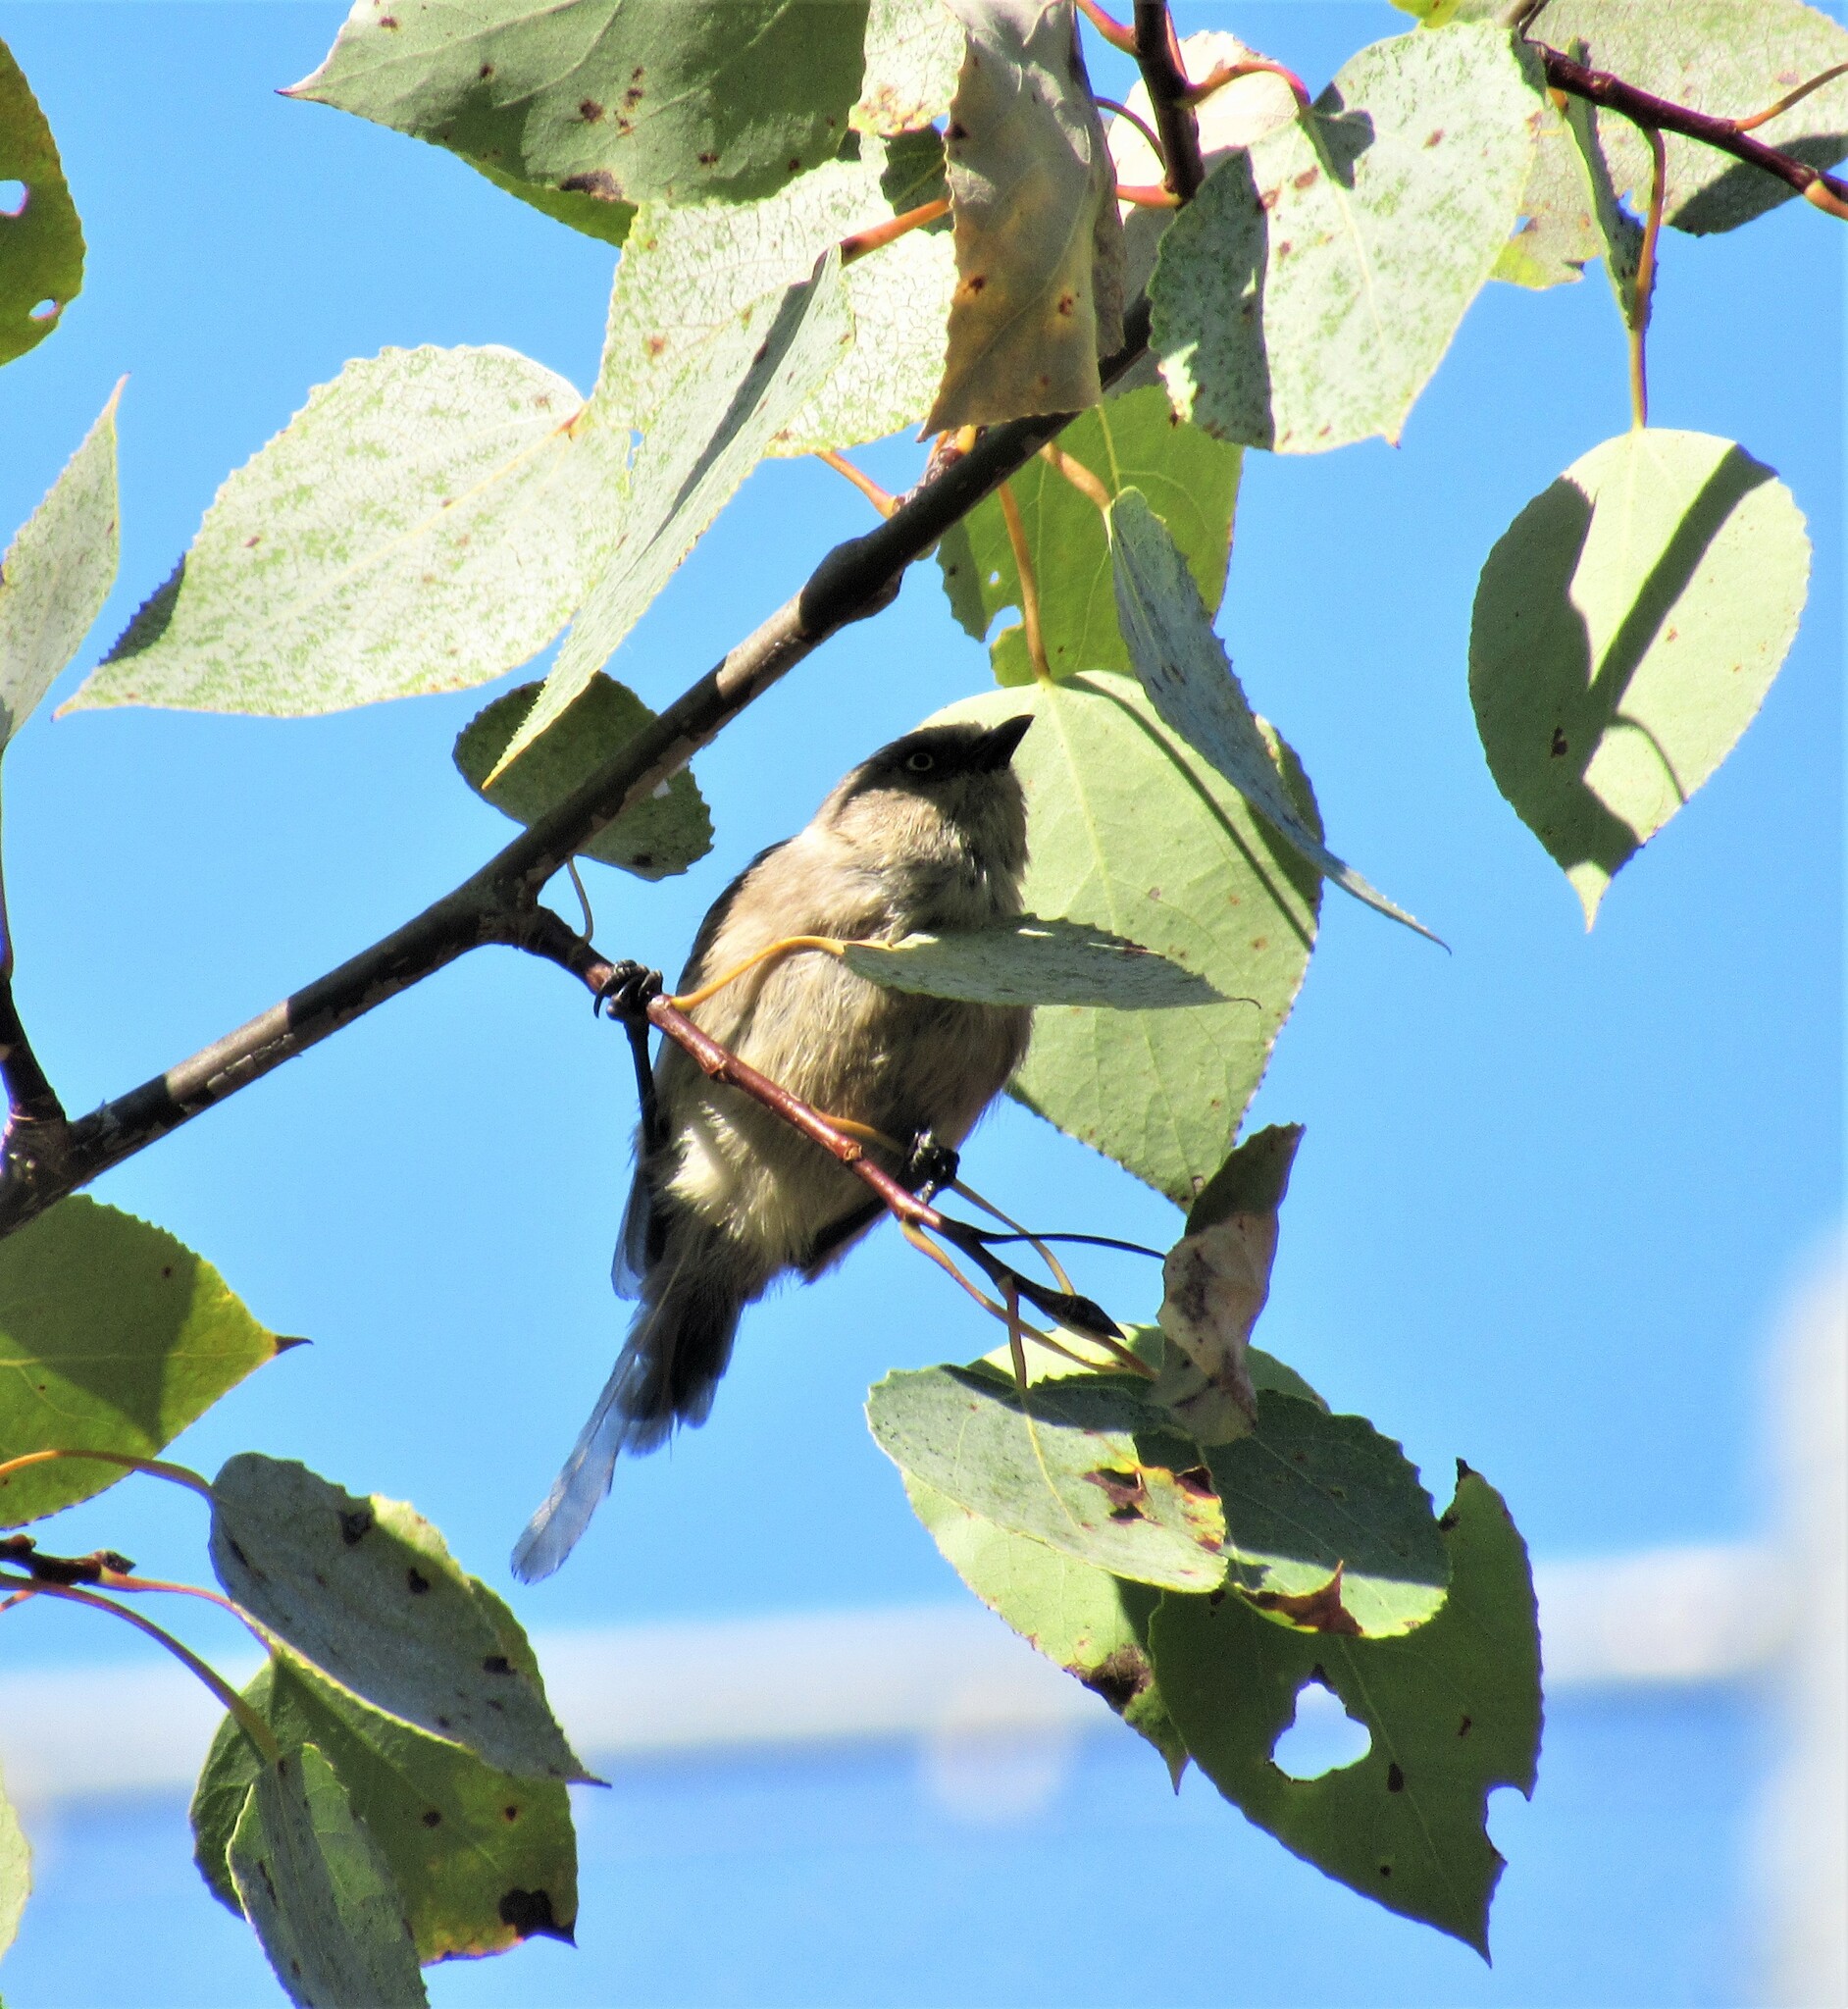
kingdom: Animalia
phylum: Chordata
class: Aves
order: Passeriformes
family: Aegithalidae
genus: Psaltriparus
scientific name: Psaltriparus minimus
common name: American bushtit
